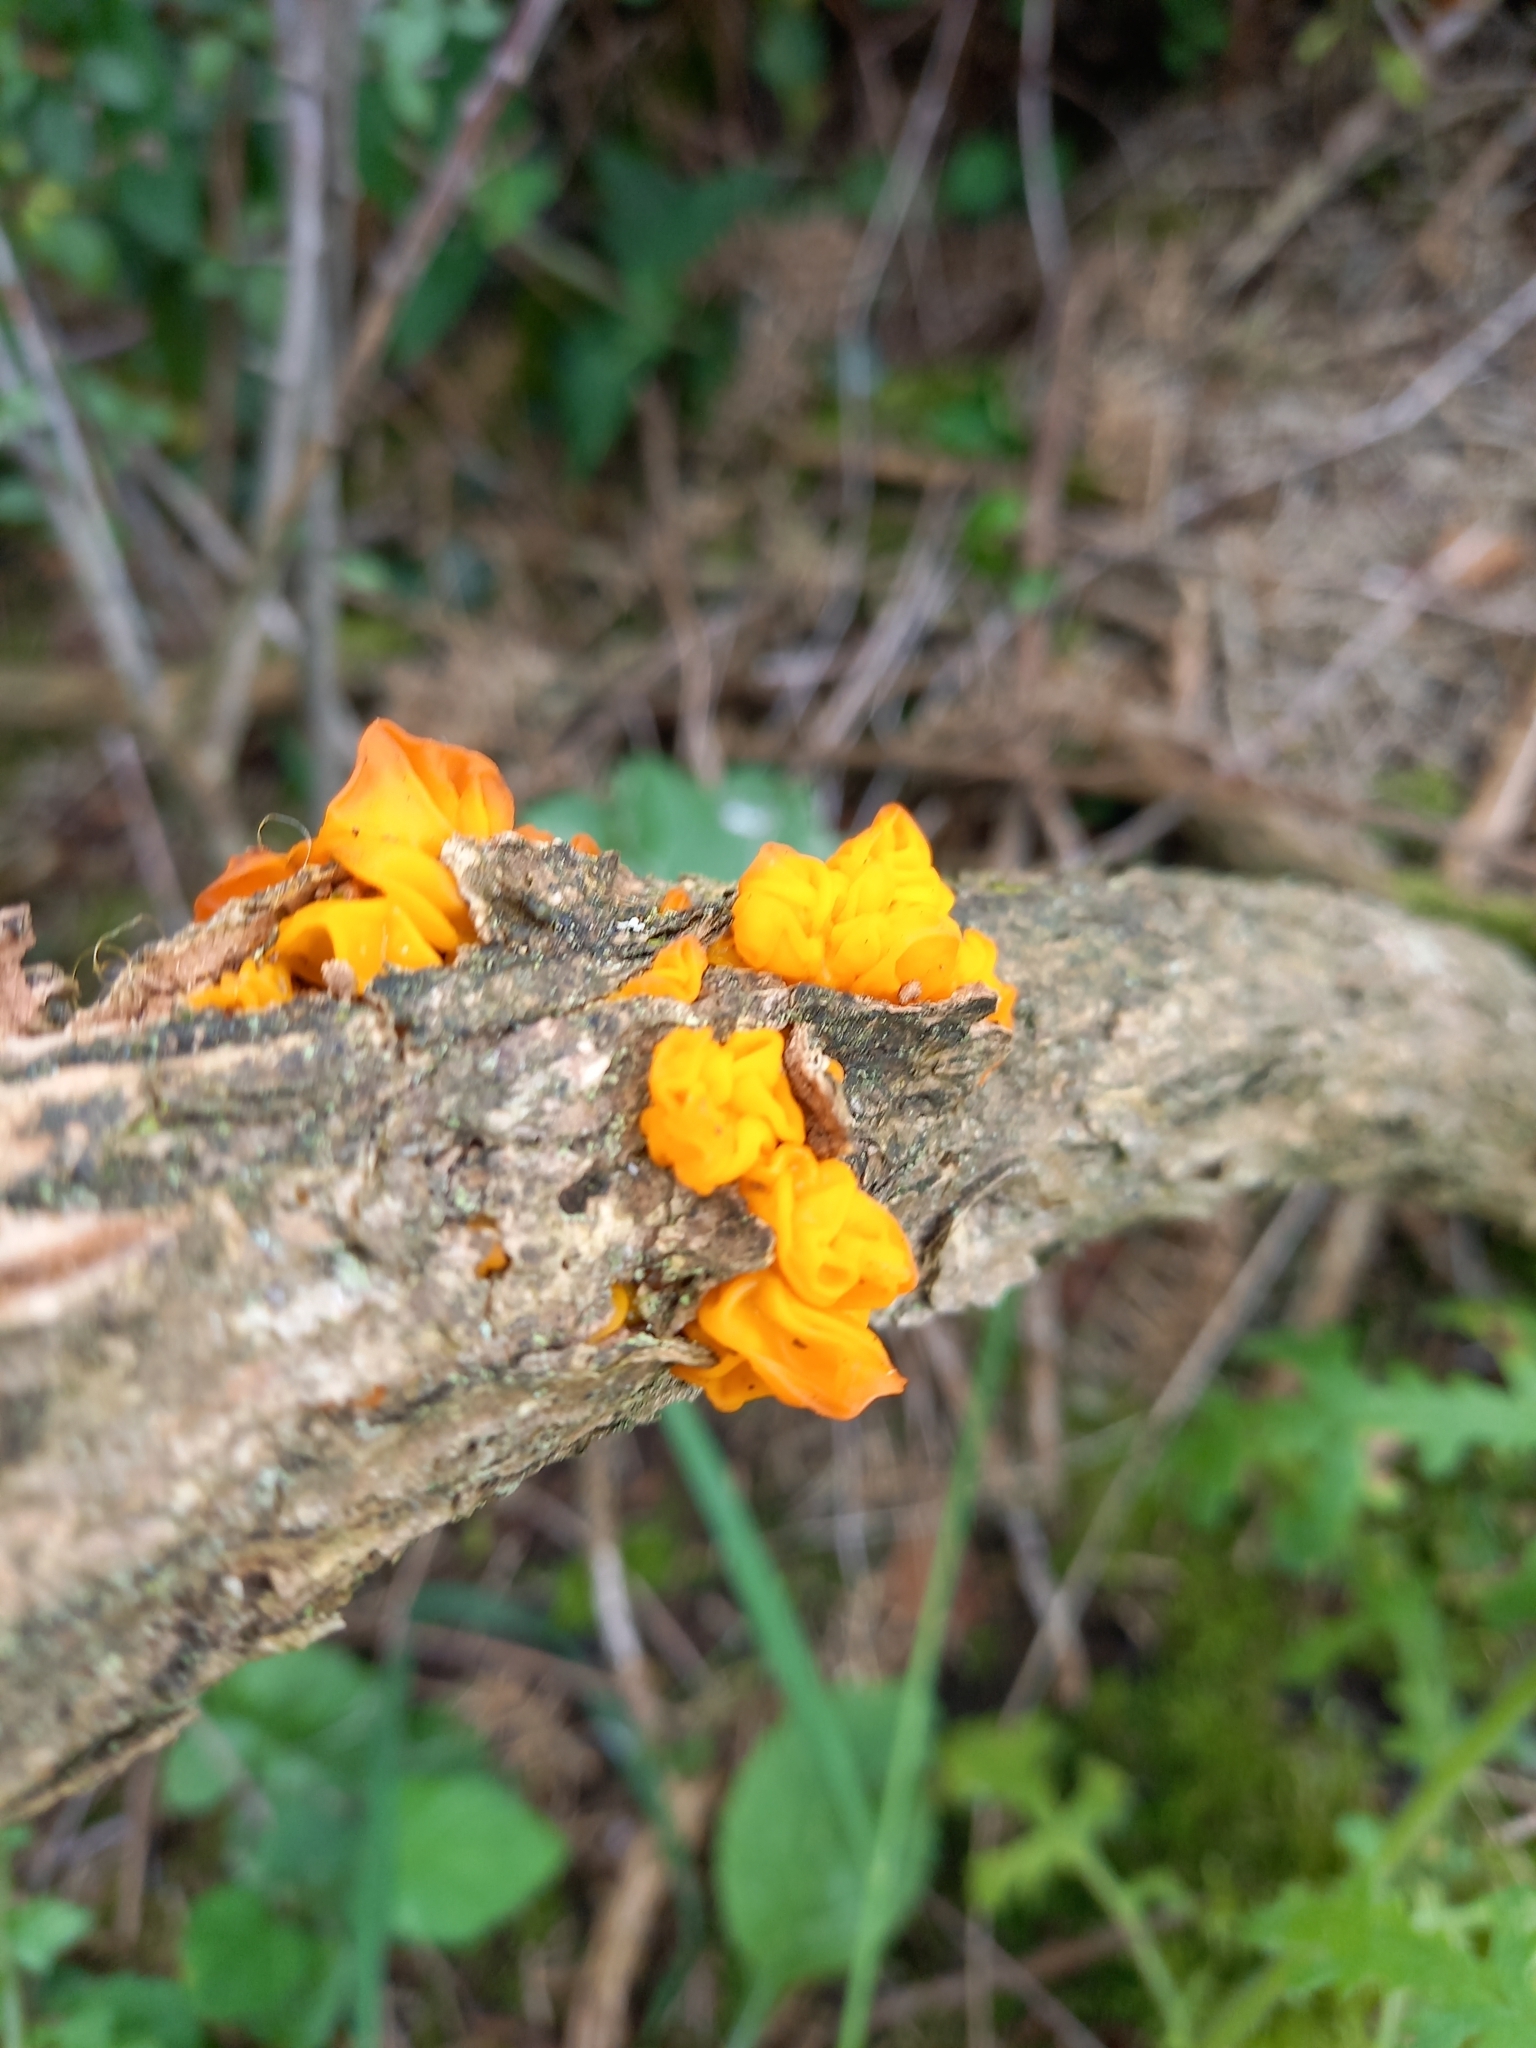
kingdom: Fungi
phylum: Basidiomycota
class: Tremellomycetes
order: Tremellales
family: Tremellaceae
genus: Tremella
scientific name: Tremella mesenterica
